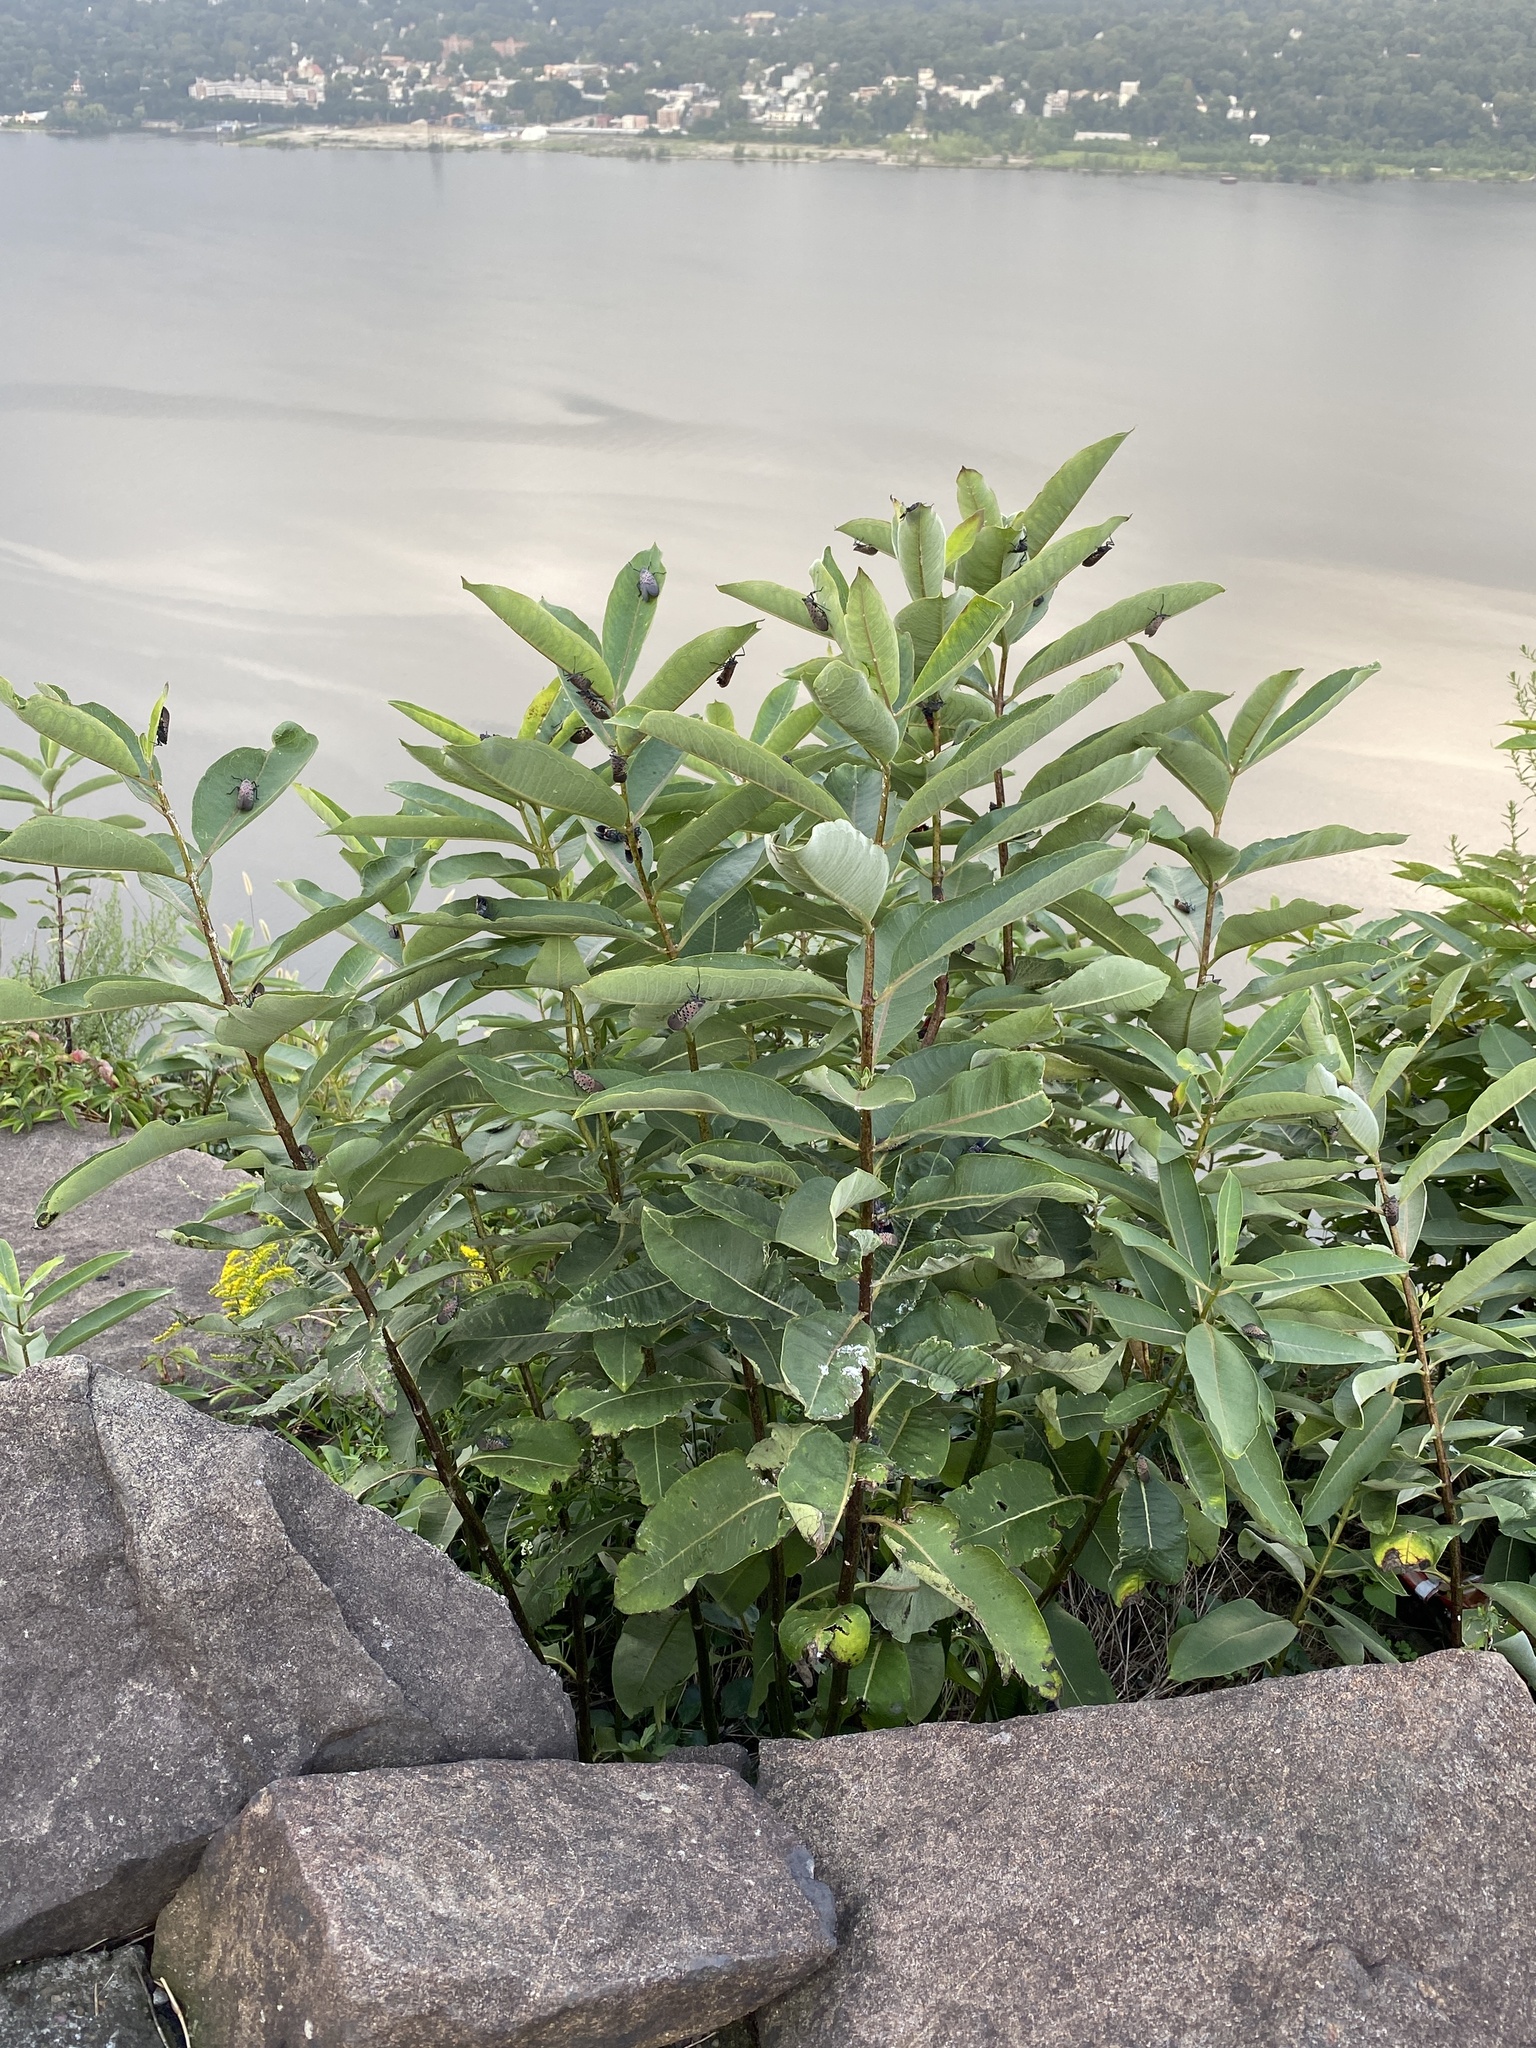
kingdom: Plantae
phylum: Tracheophyta
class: Magnoliopsida
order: Gentianales
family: Apocynaceae
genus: Asclepias
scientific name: Asclepias syriaca
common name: Common milkweed
